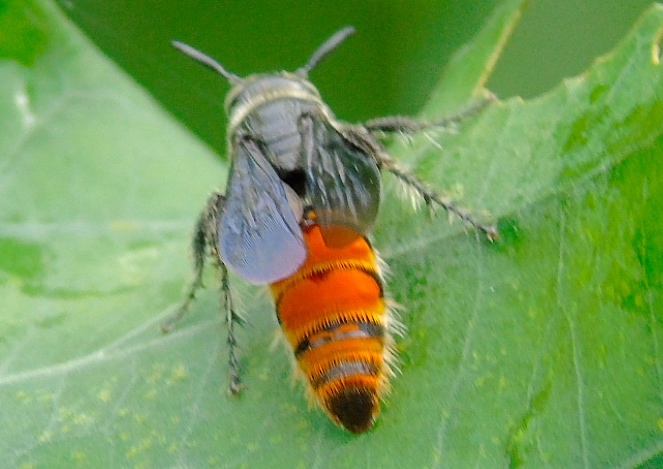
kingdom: Animalia
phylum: Arthropoda
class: Insecta
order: Hymenoptera
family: Scoliidae
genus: Dielis
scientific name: Dielis tolteca
